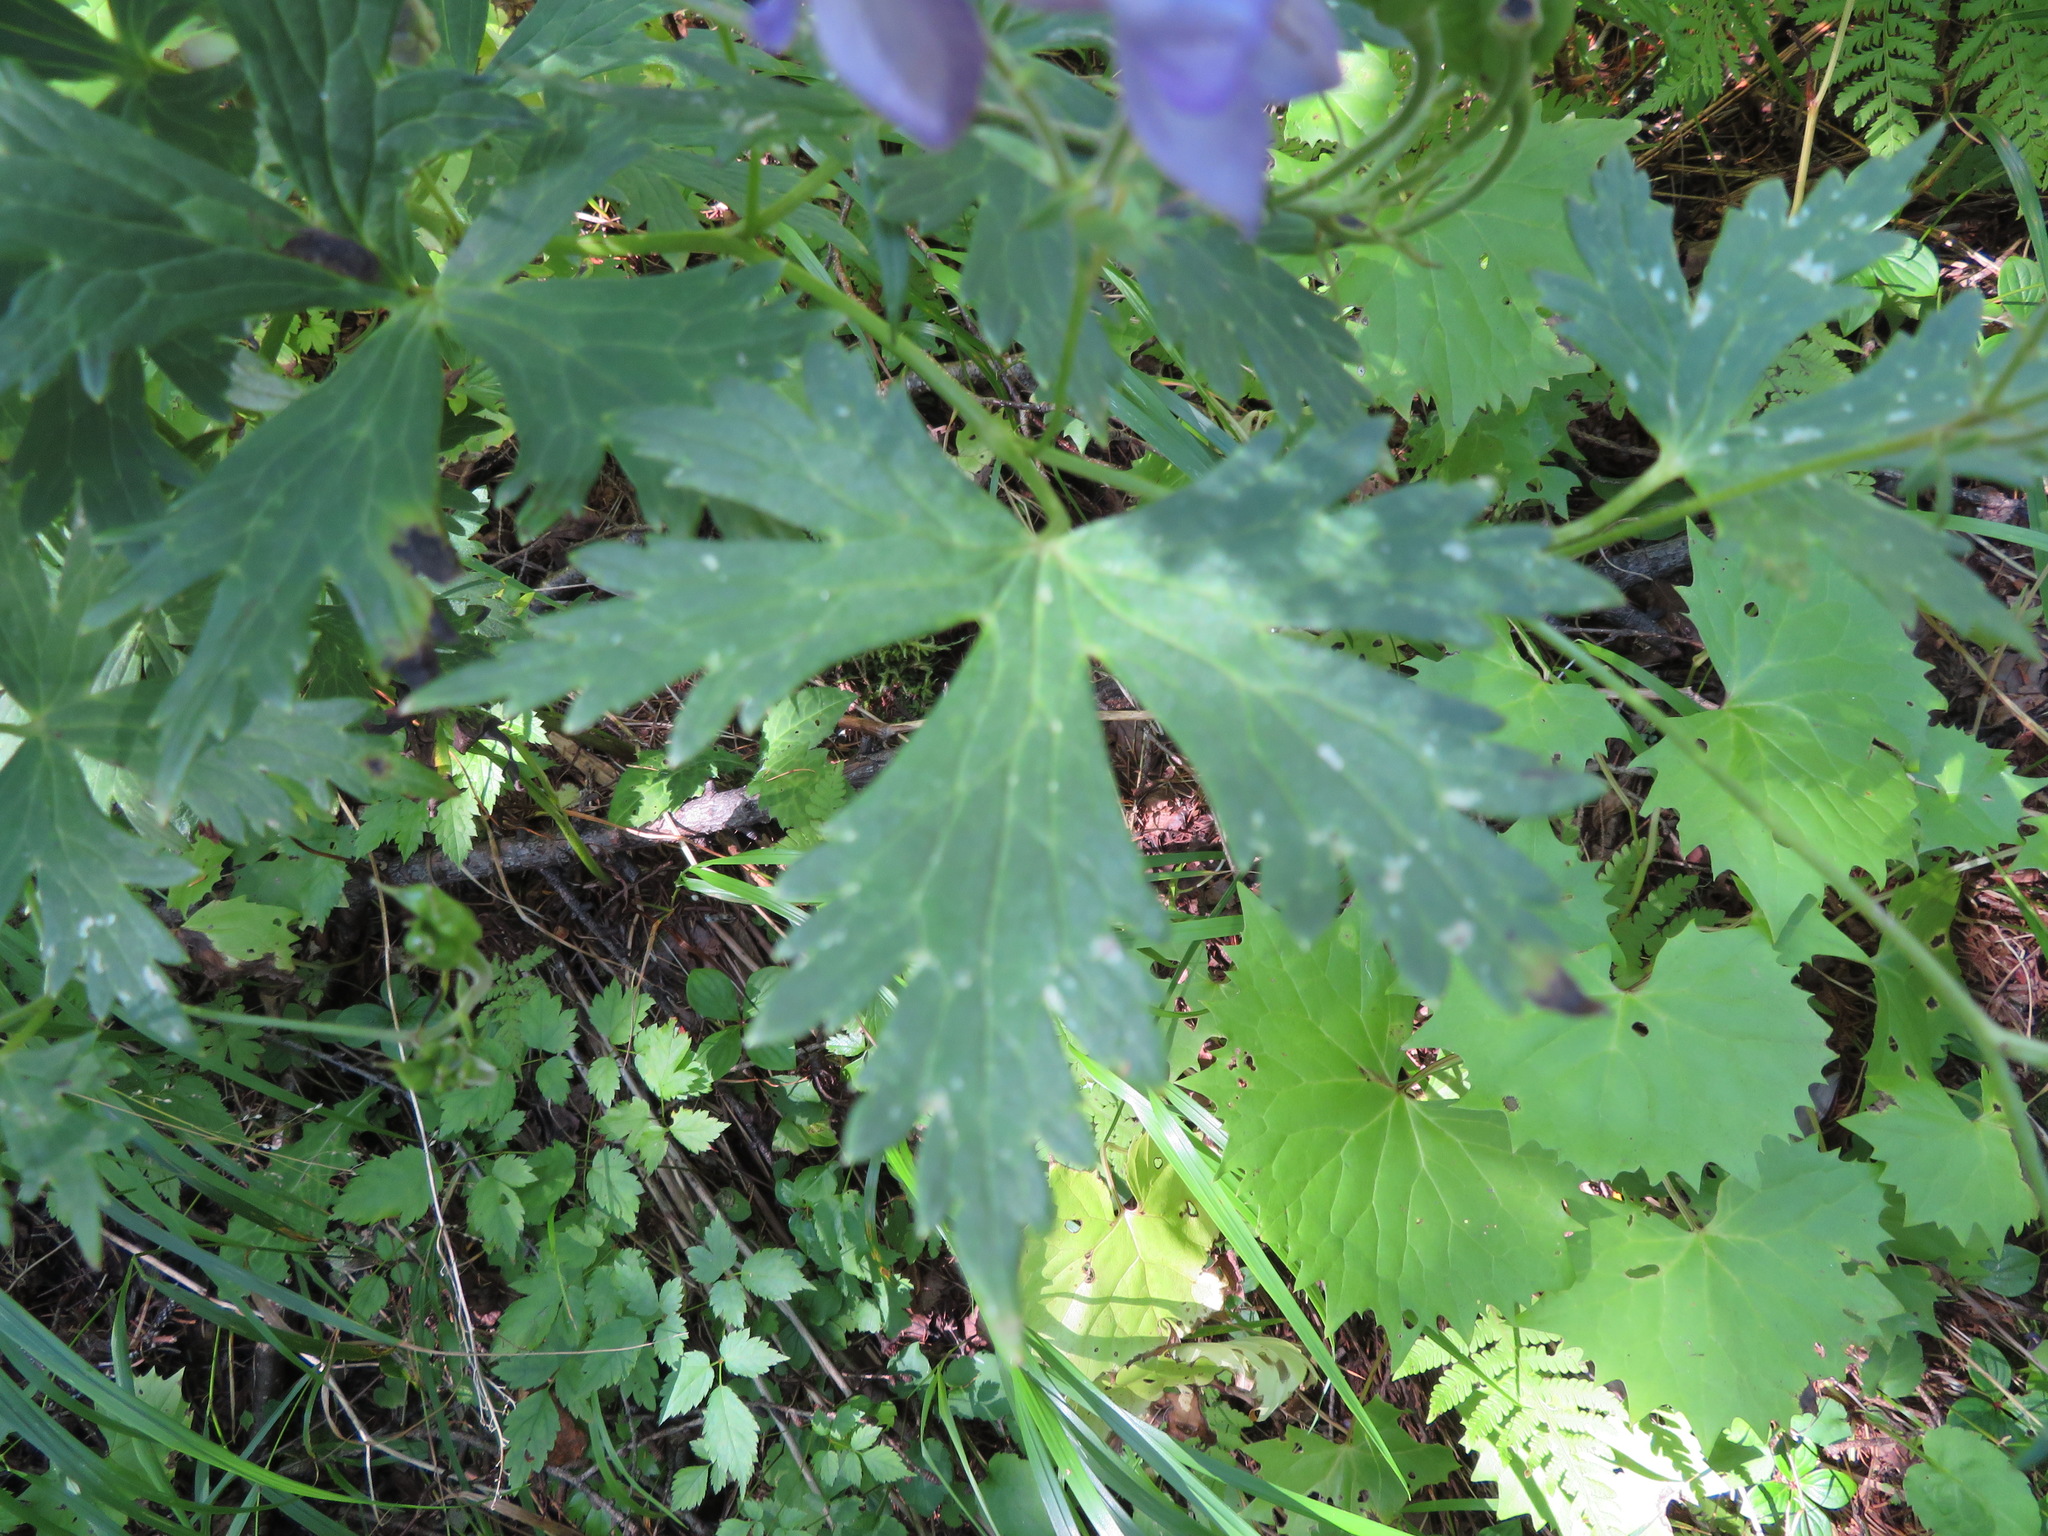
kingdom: Plantae
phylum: Tracheophyta
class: Magnoliopsida
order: Ranunculales
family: Ranunculaceae
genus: Aconitum
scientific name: Aconitum senanense
